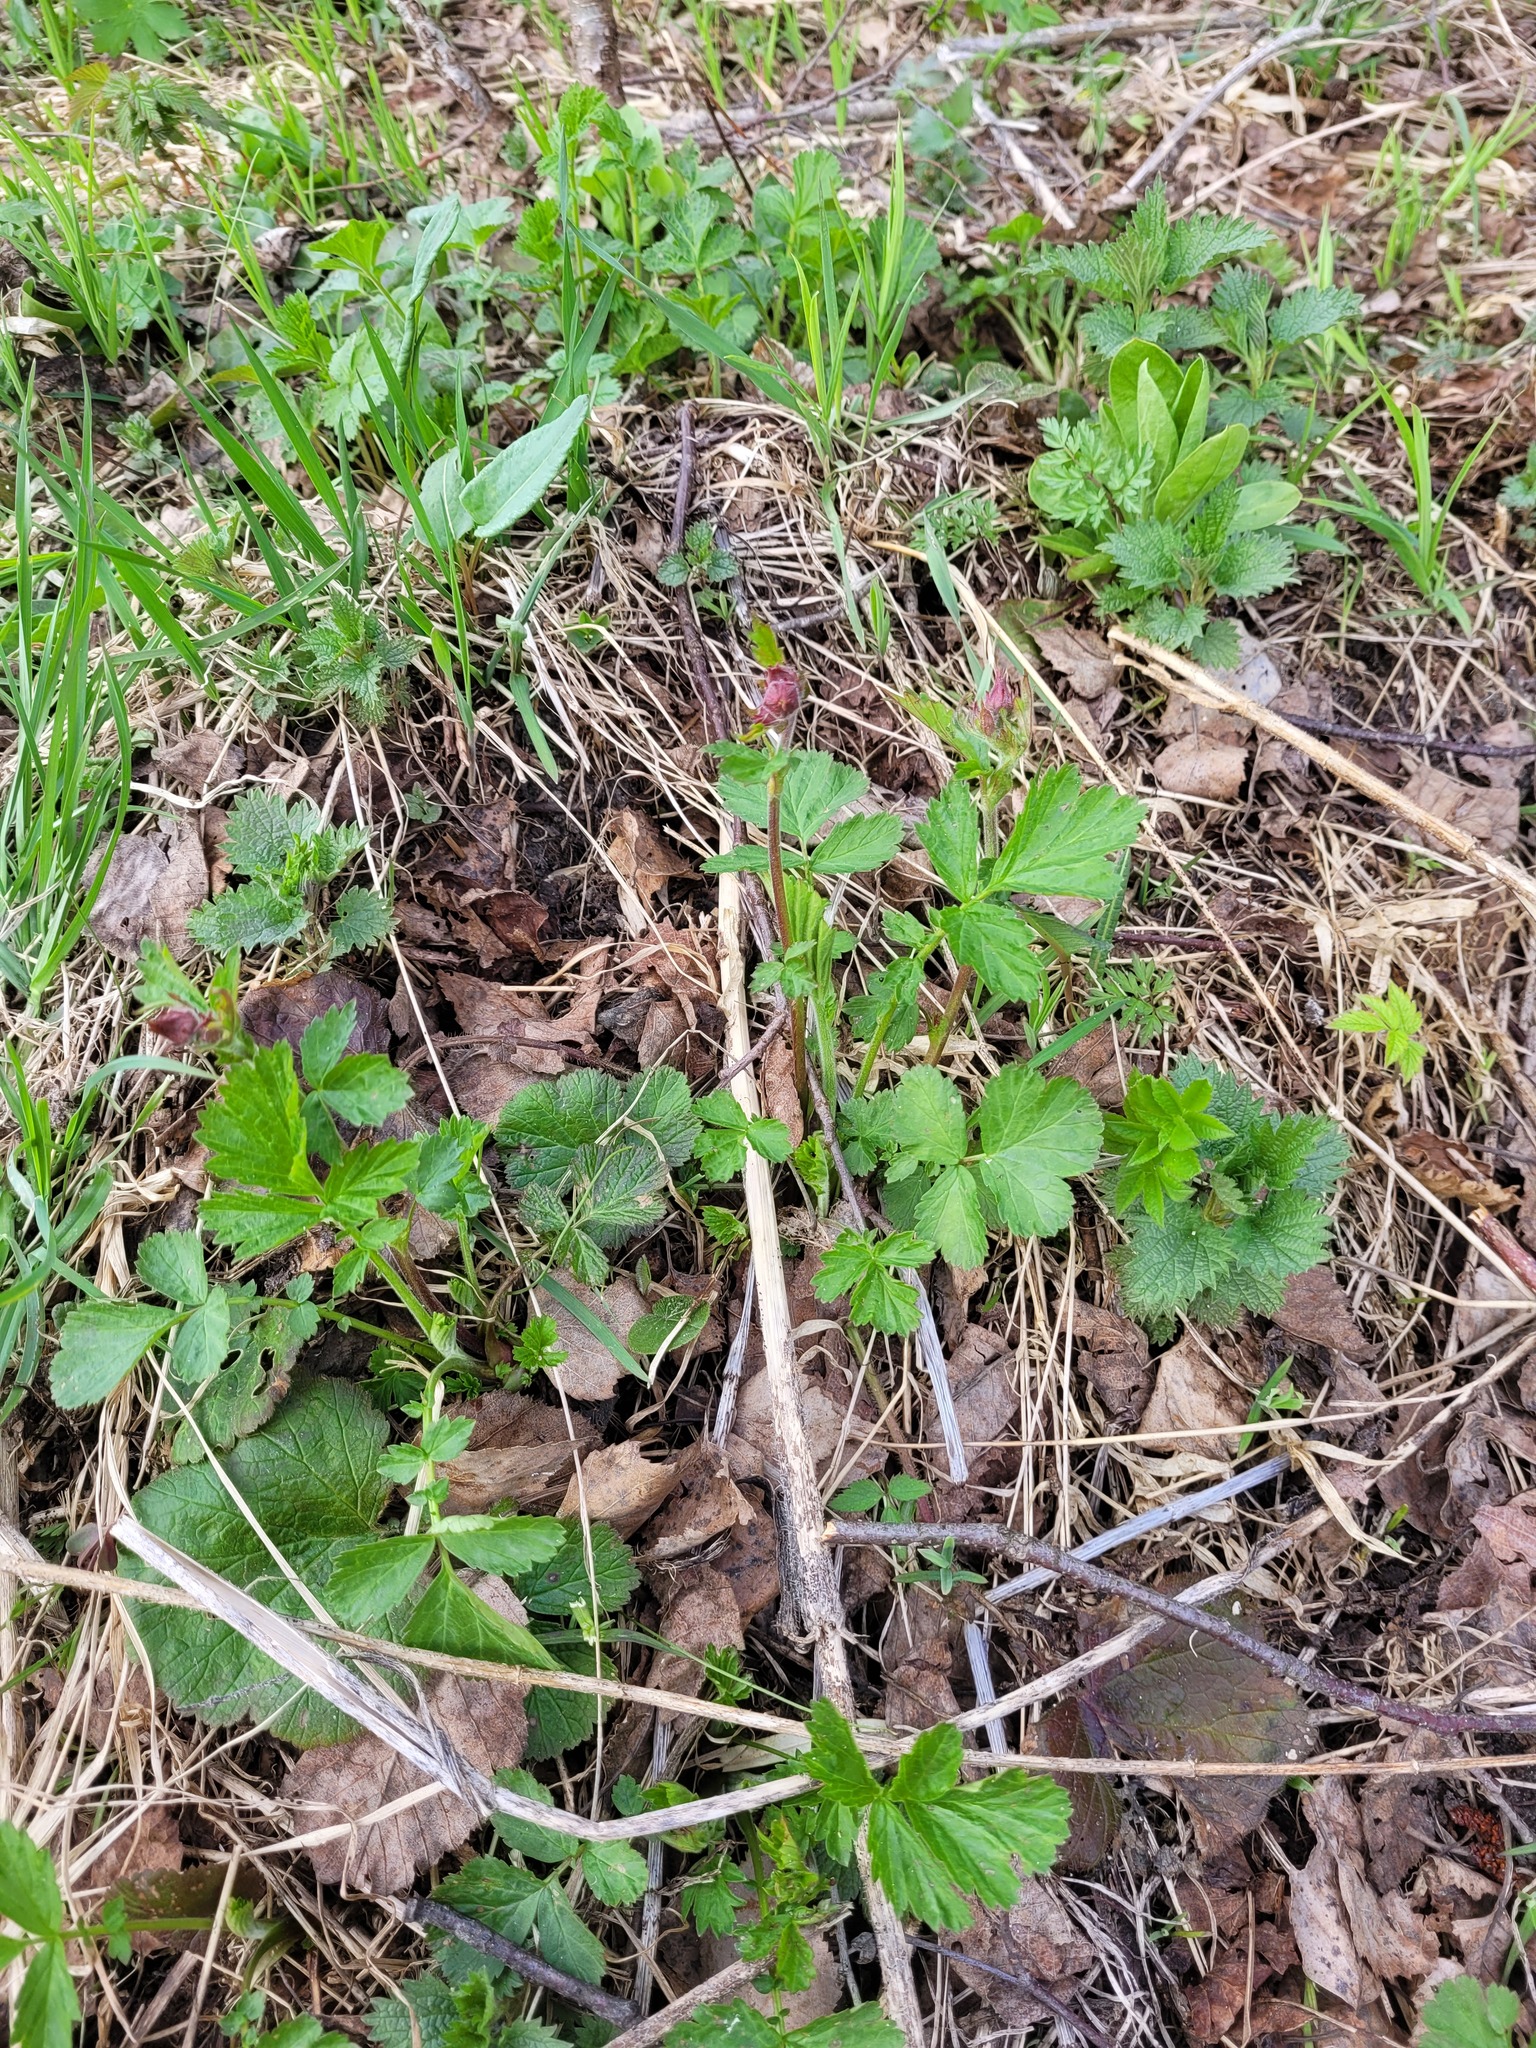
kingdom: Plantae
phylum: Tracheophyta
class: Magnoliopsida
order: Rosales
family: Rosaceae
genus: Geum
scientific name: Geum rivale
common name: Water avens
